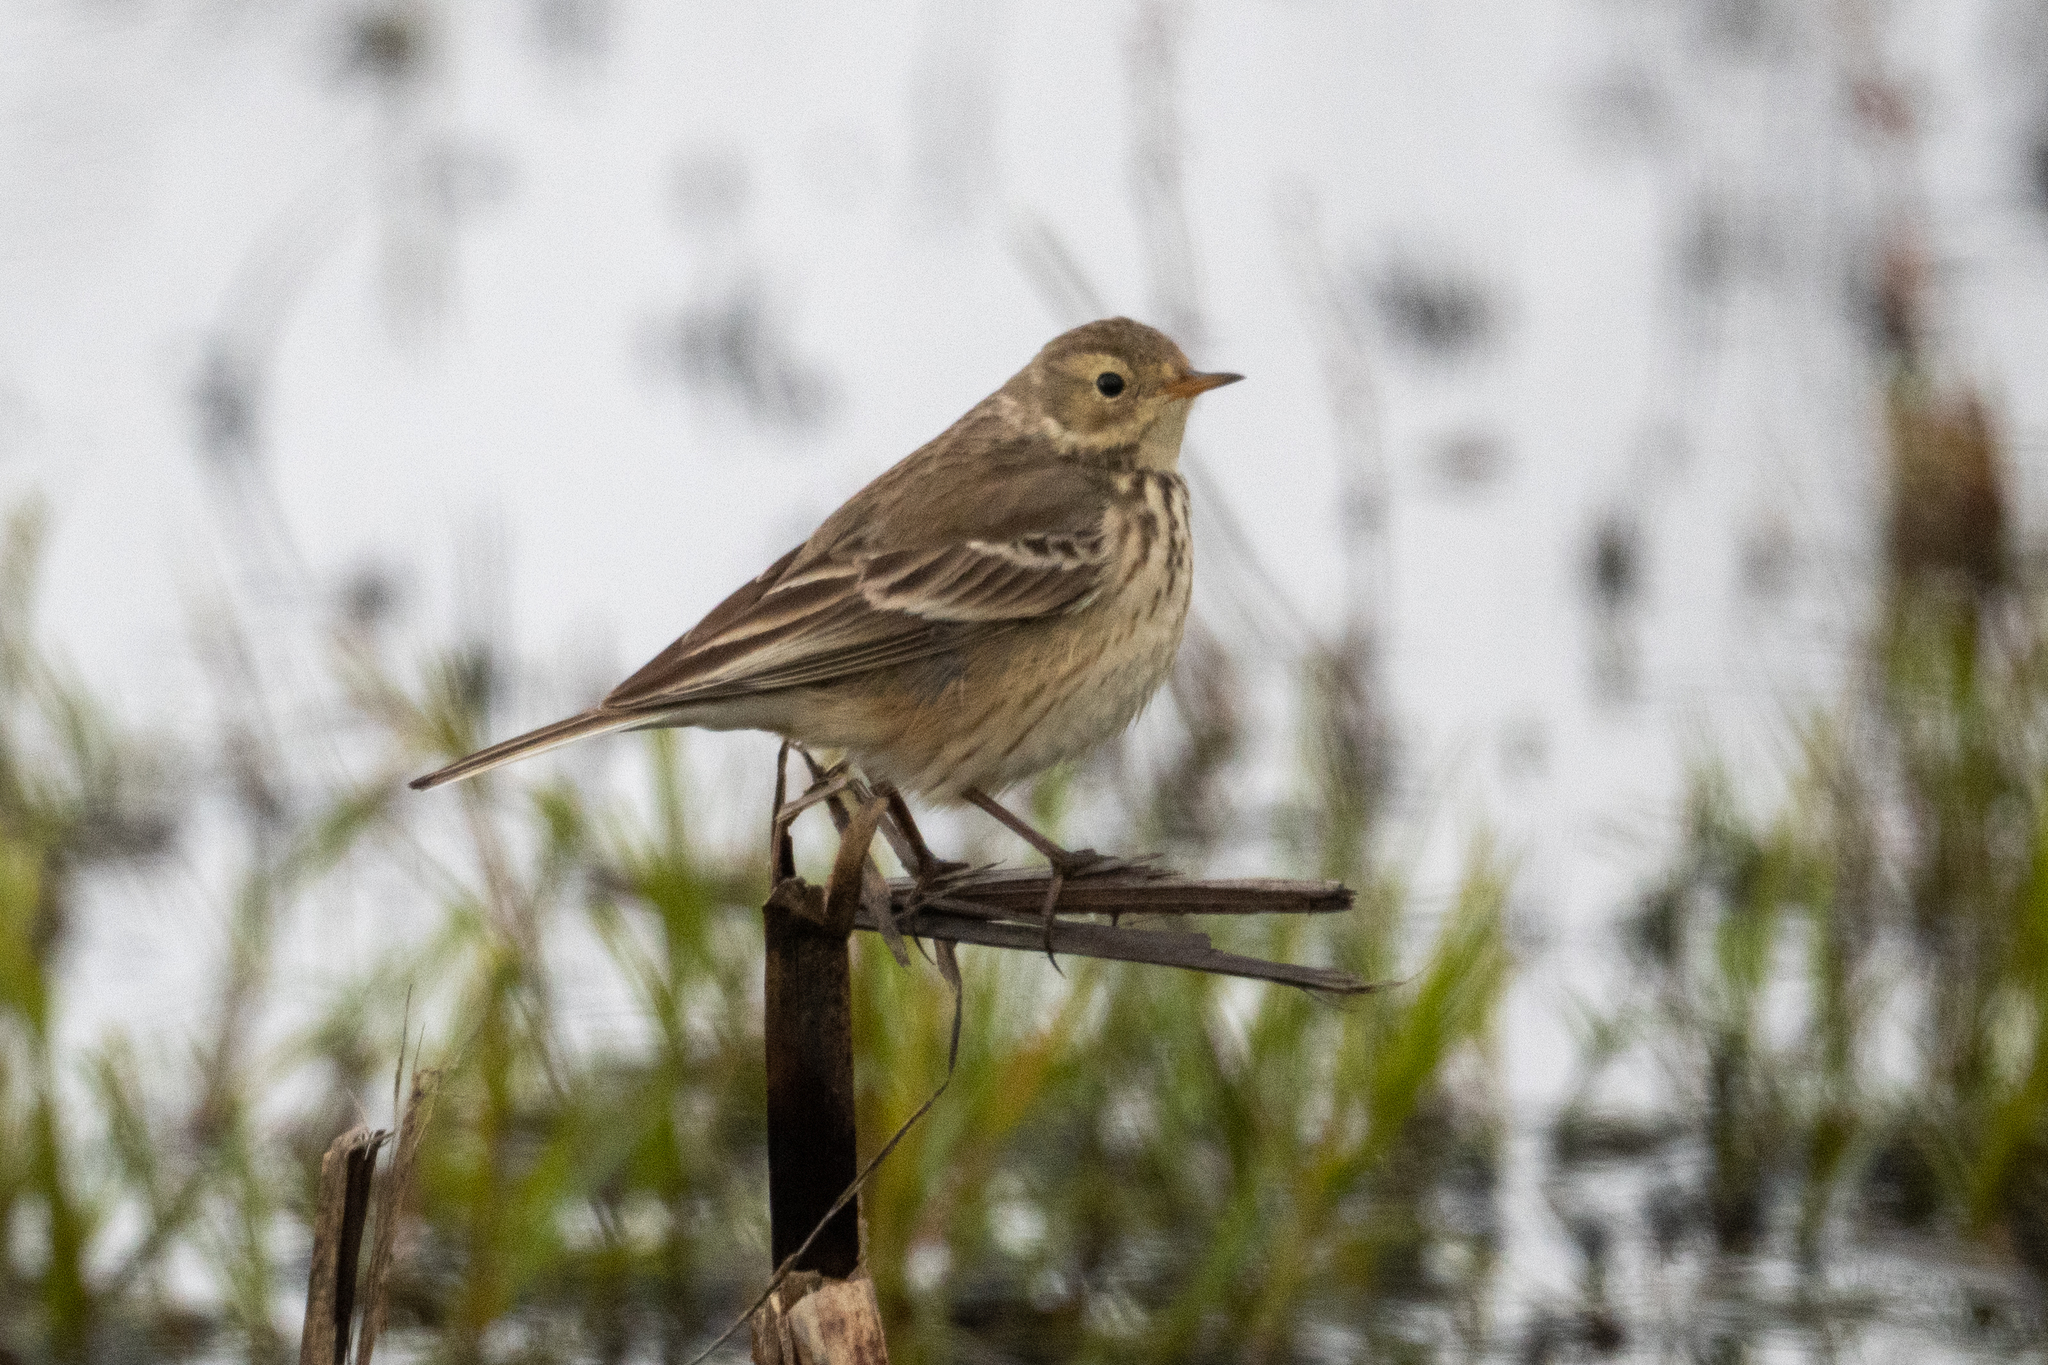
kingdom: Animalia
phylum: Chordata
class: Aves
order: Passeriformes
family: Motacillidae
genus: Anthus
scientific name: Anthus rubescens
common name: Buff-bellied pipit
